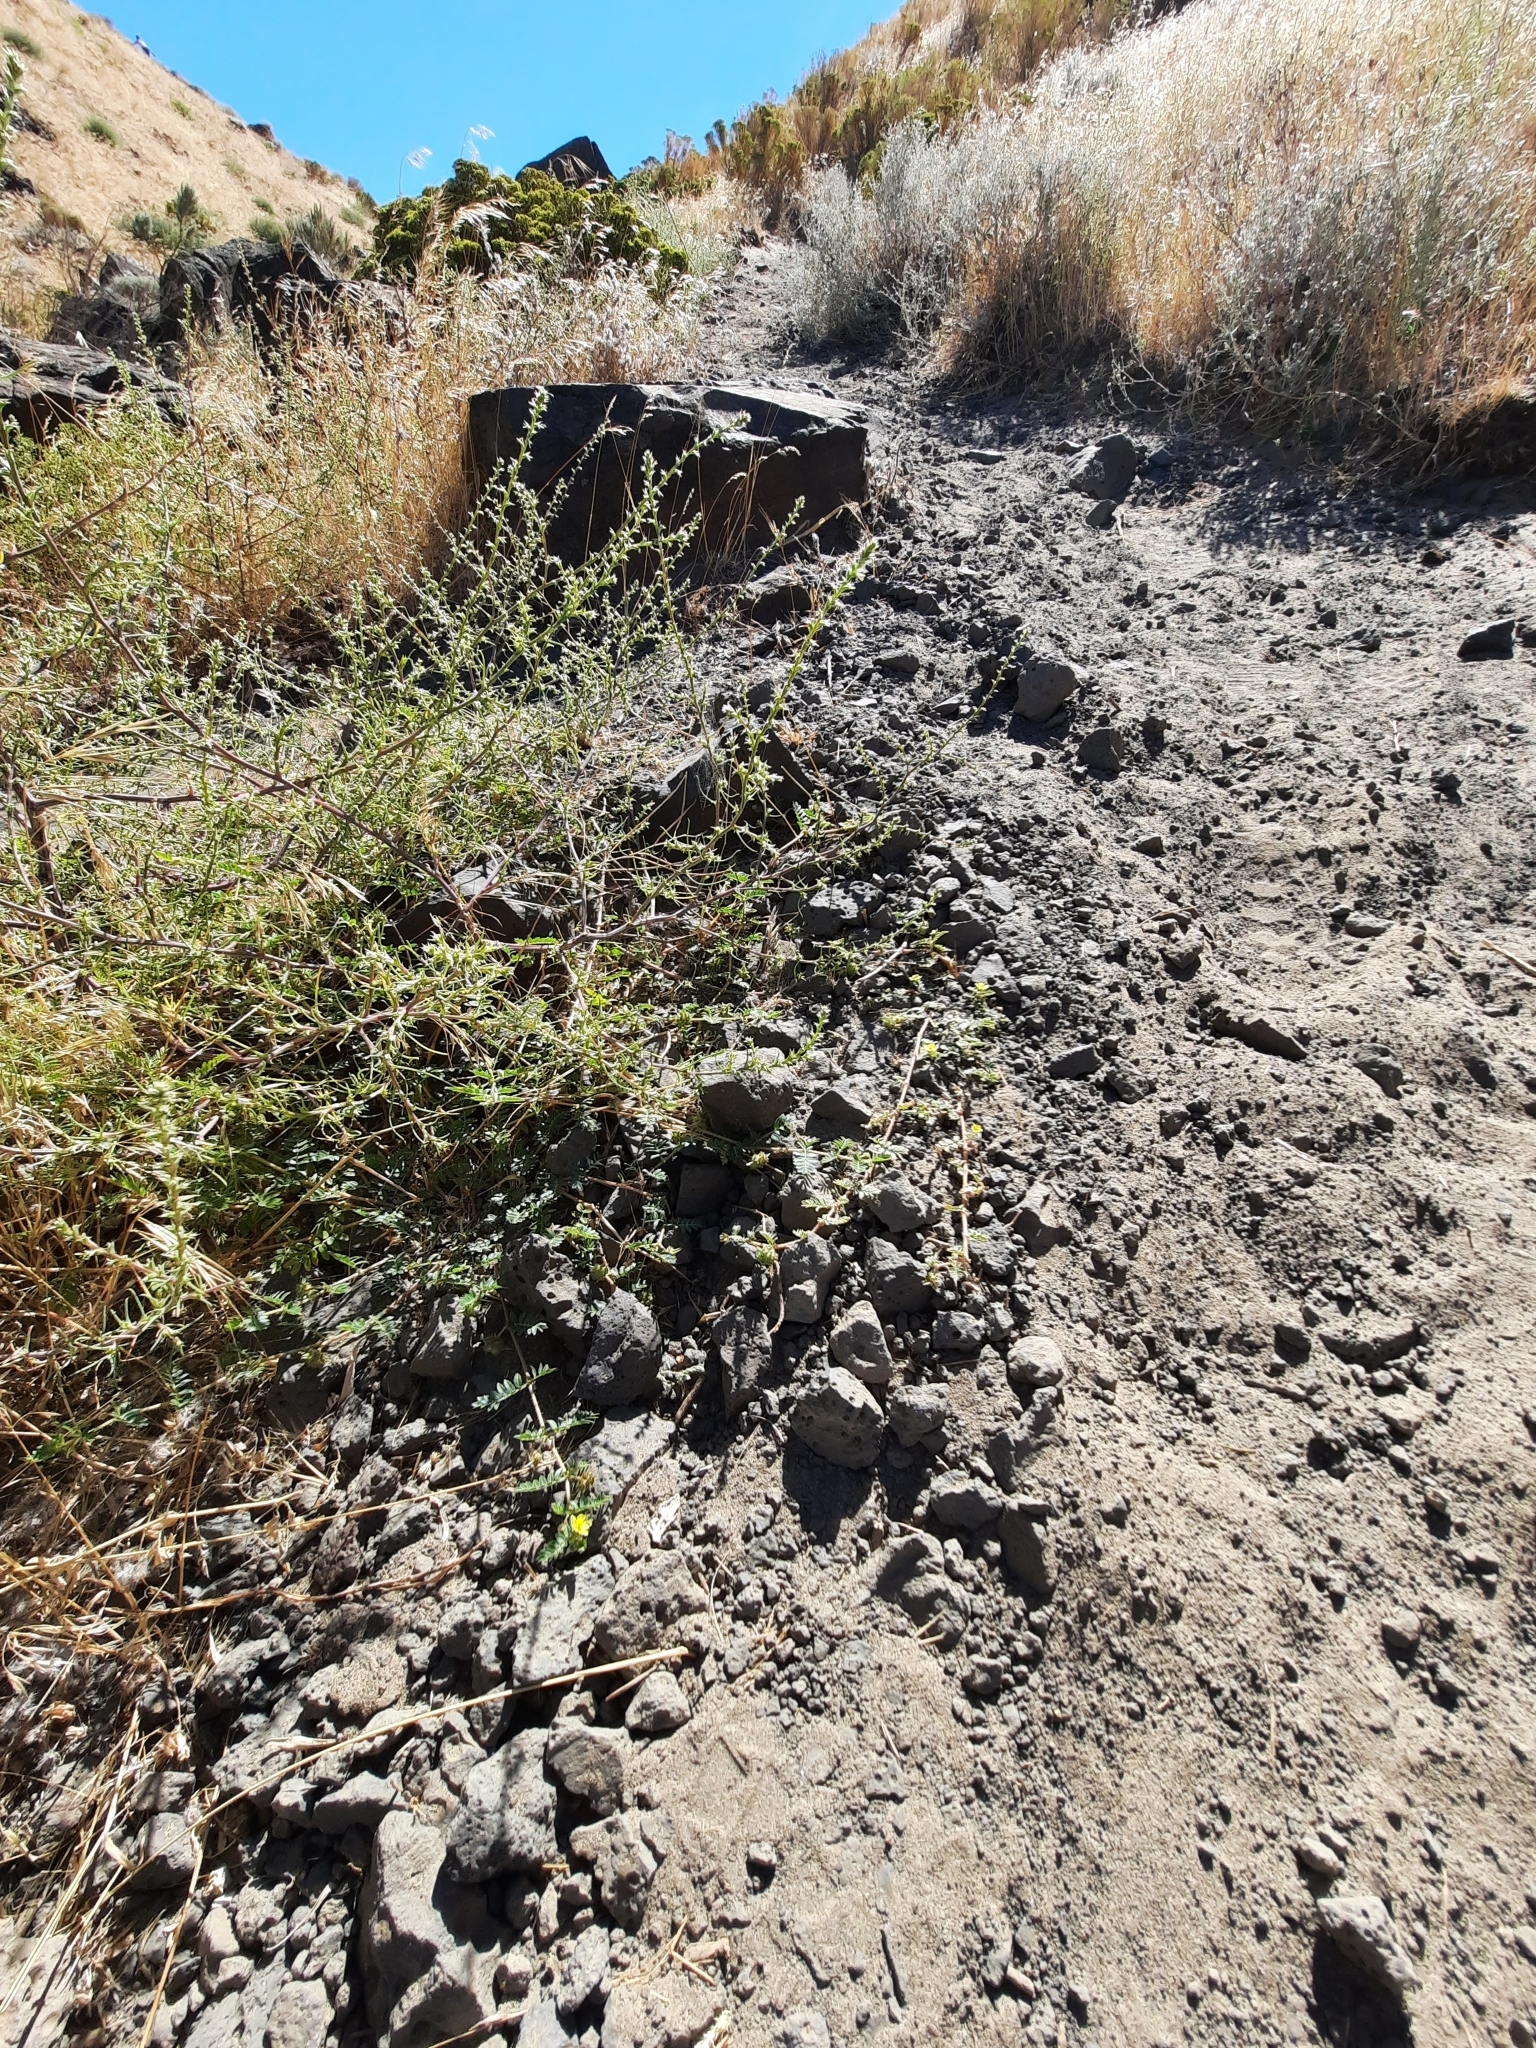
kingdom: Plantae
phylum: Tracheophyta
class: Magnoliopsida
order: Zygophyllales
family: Zygophyllaceae
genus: Tribulus
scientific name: Tribulus terrestris
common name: Puncturevine
